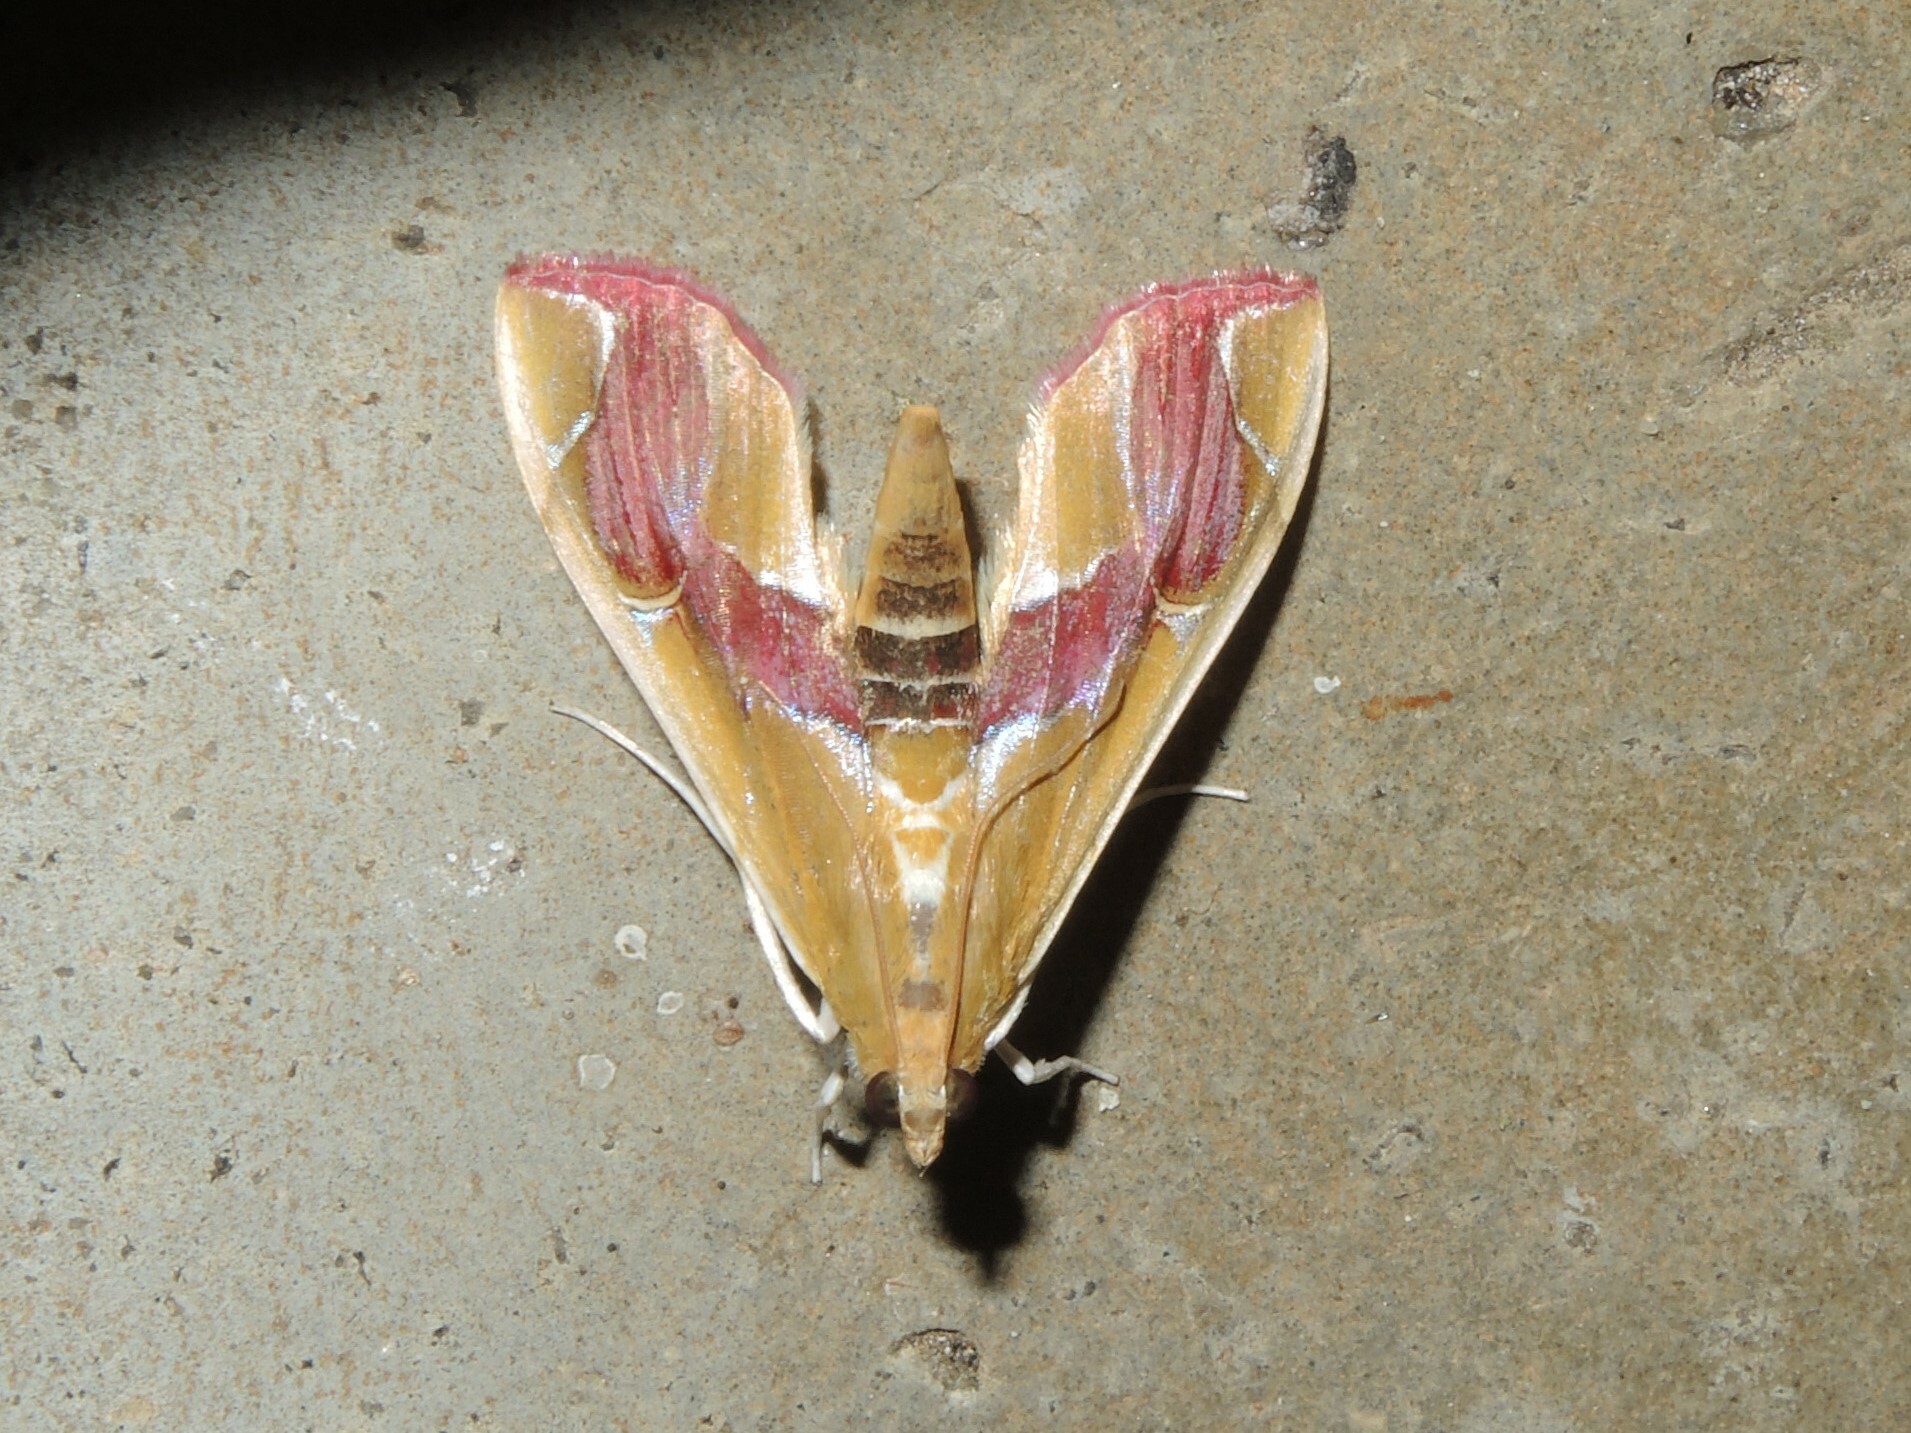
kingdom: Animalia
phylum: Arthropoda
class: Insecta
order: Lepidoptera
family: Crambidae
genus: Agathodes
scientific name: Agathodes ostentalis
